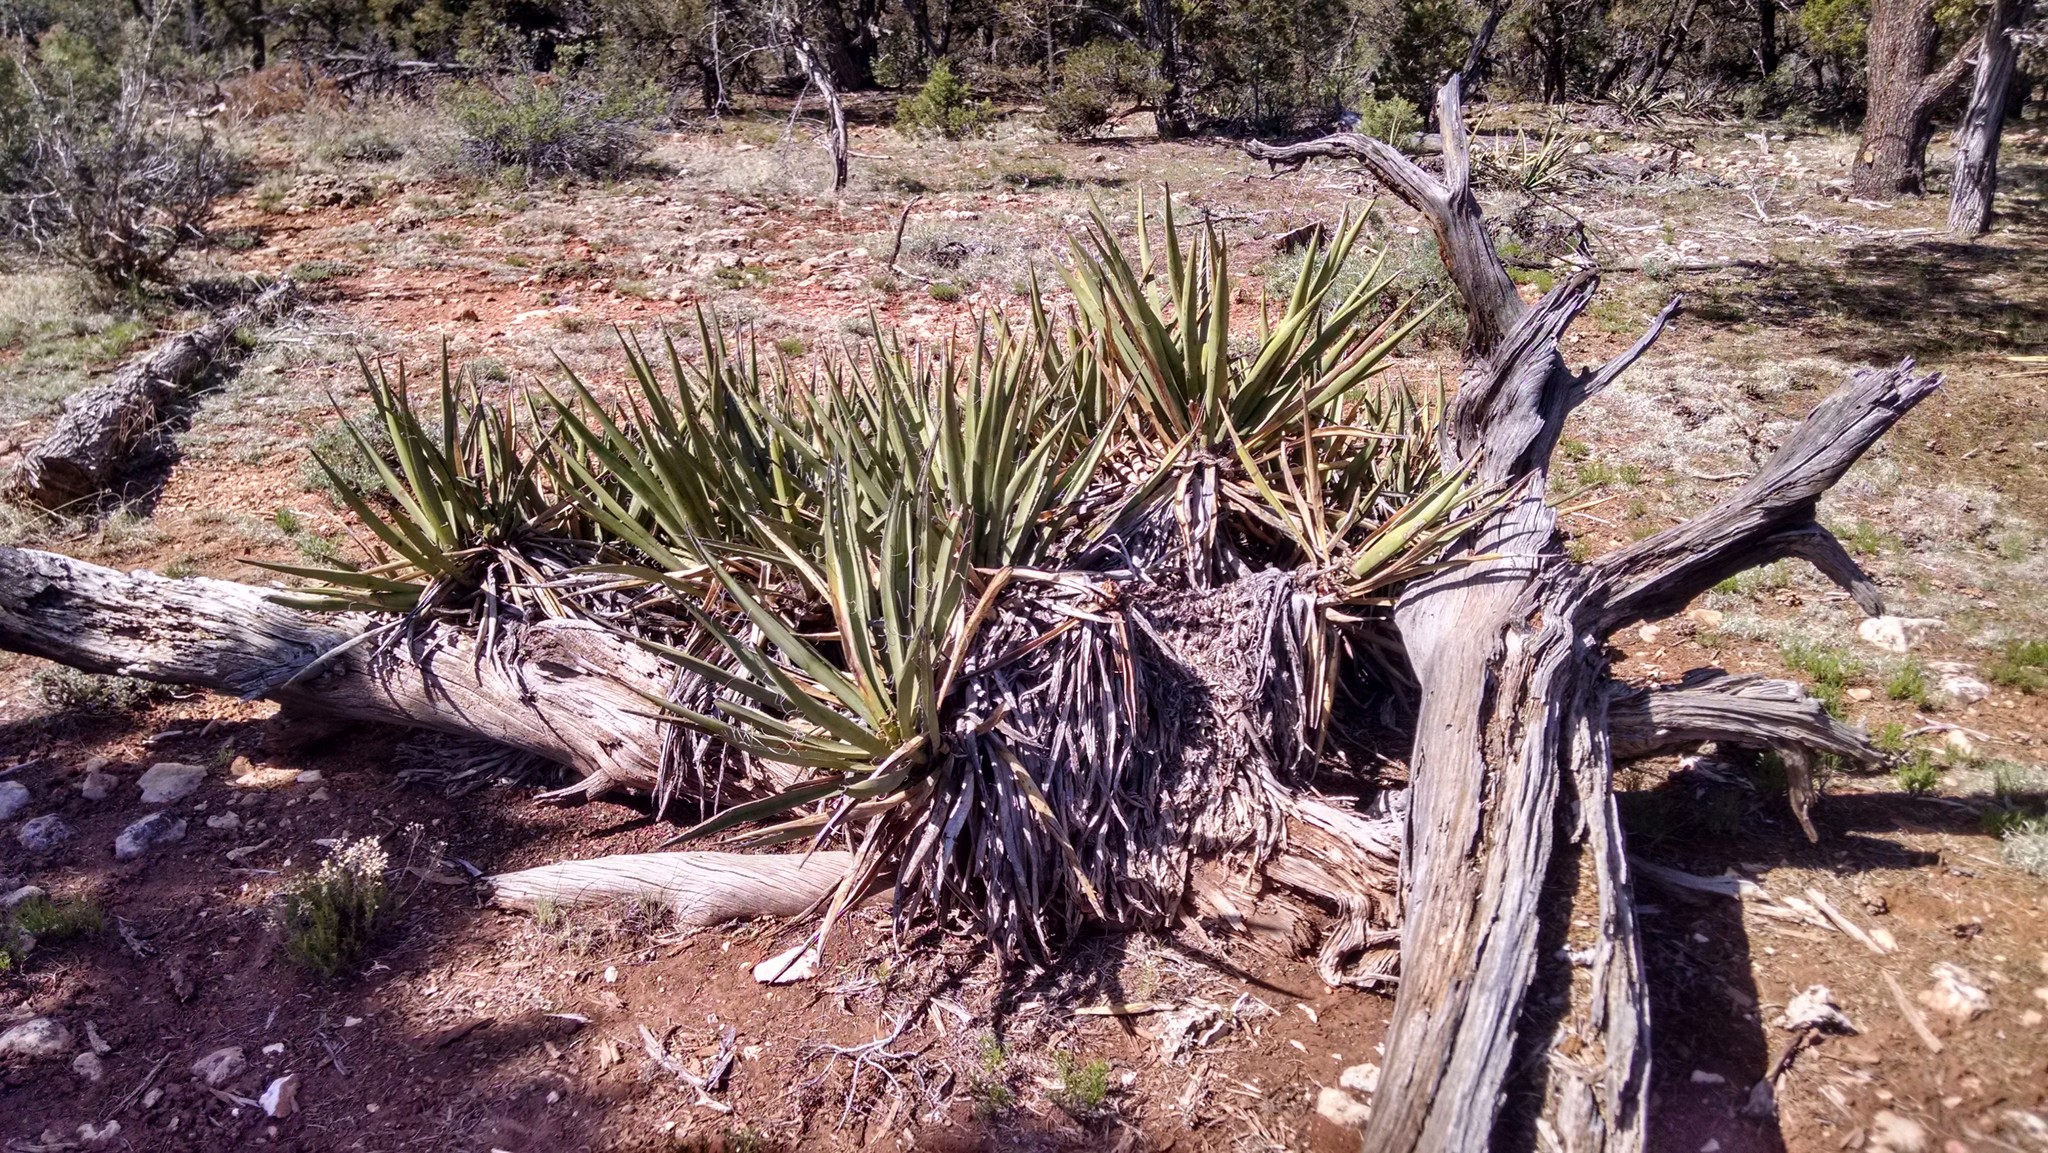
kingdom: Plantae
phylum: Tracheophyta
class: Liliopsida
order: Asparagales
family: Asparagaceae
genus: Yucca
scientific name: Yucca baccata
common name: Banana yucca
